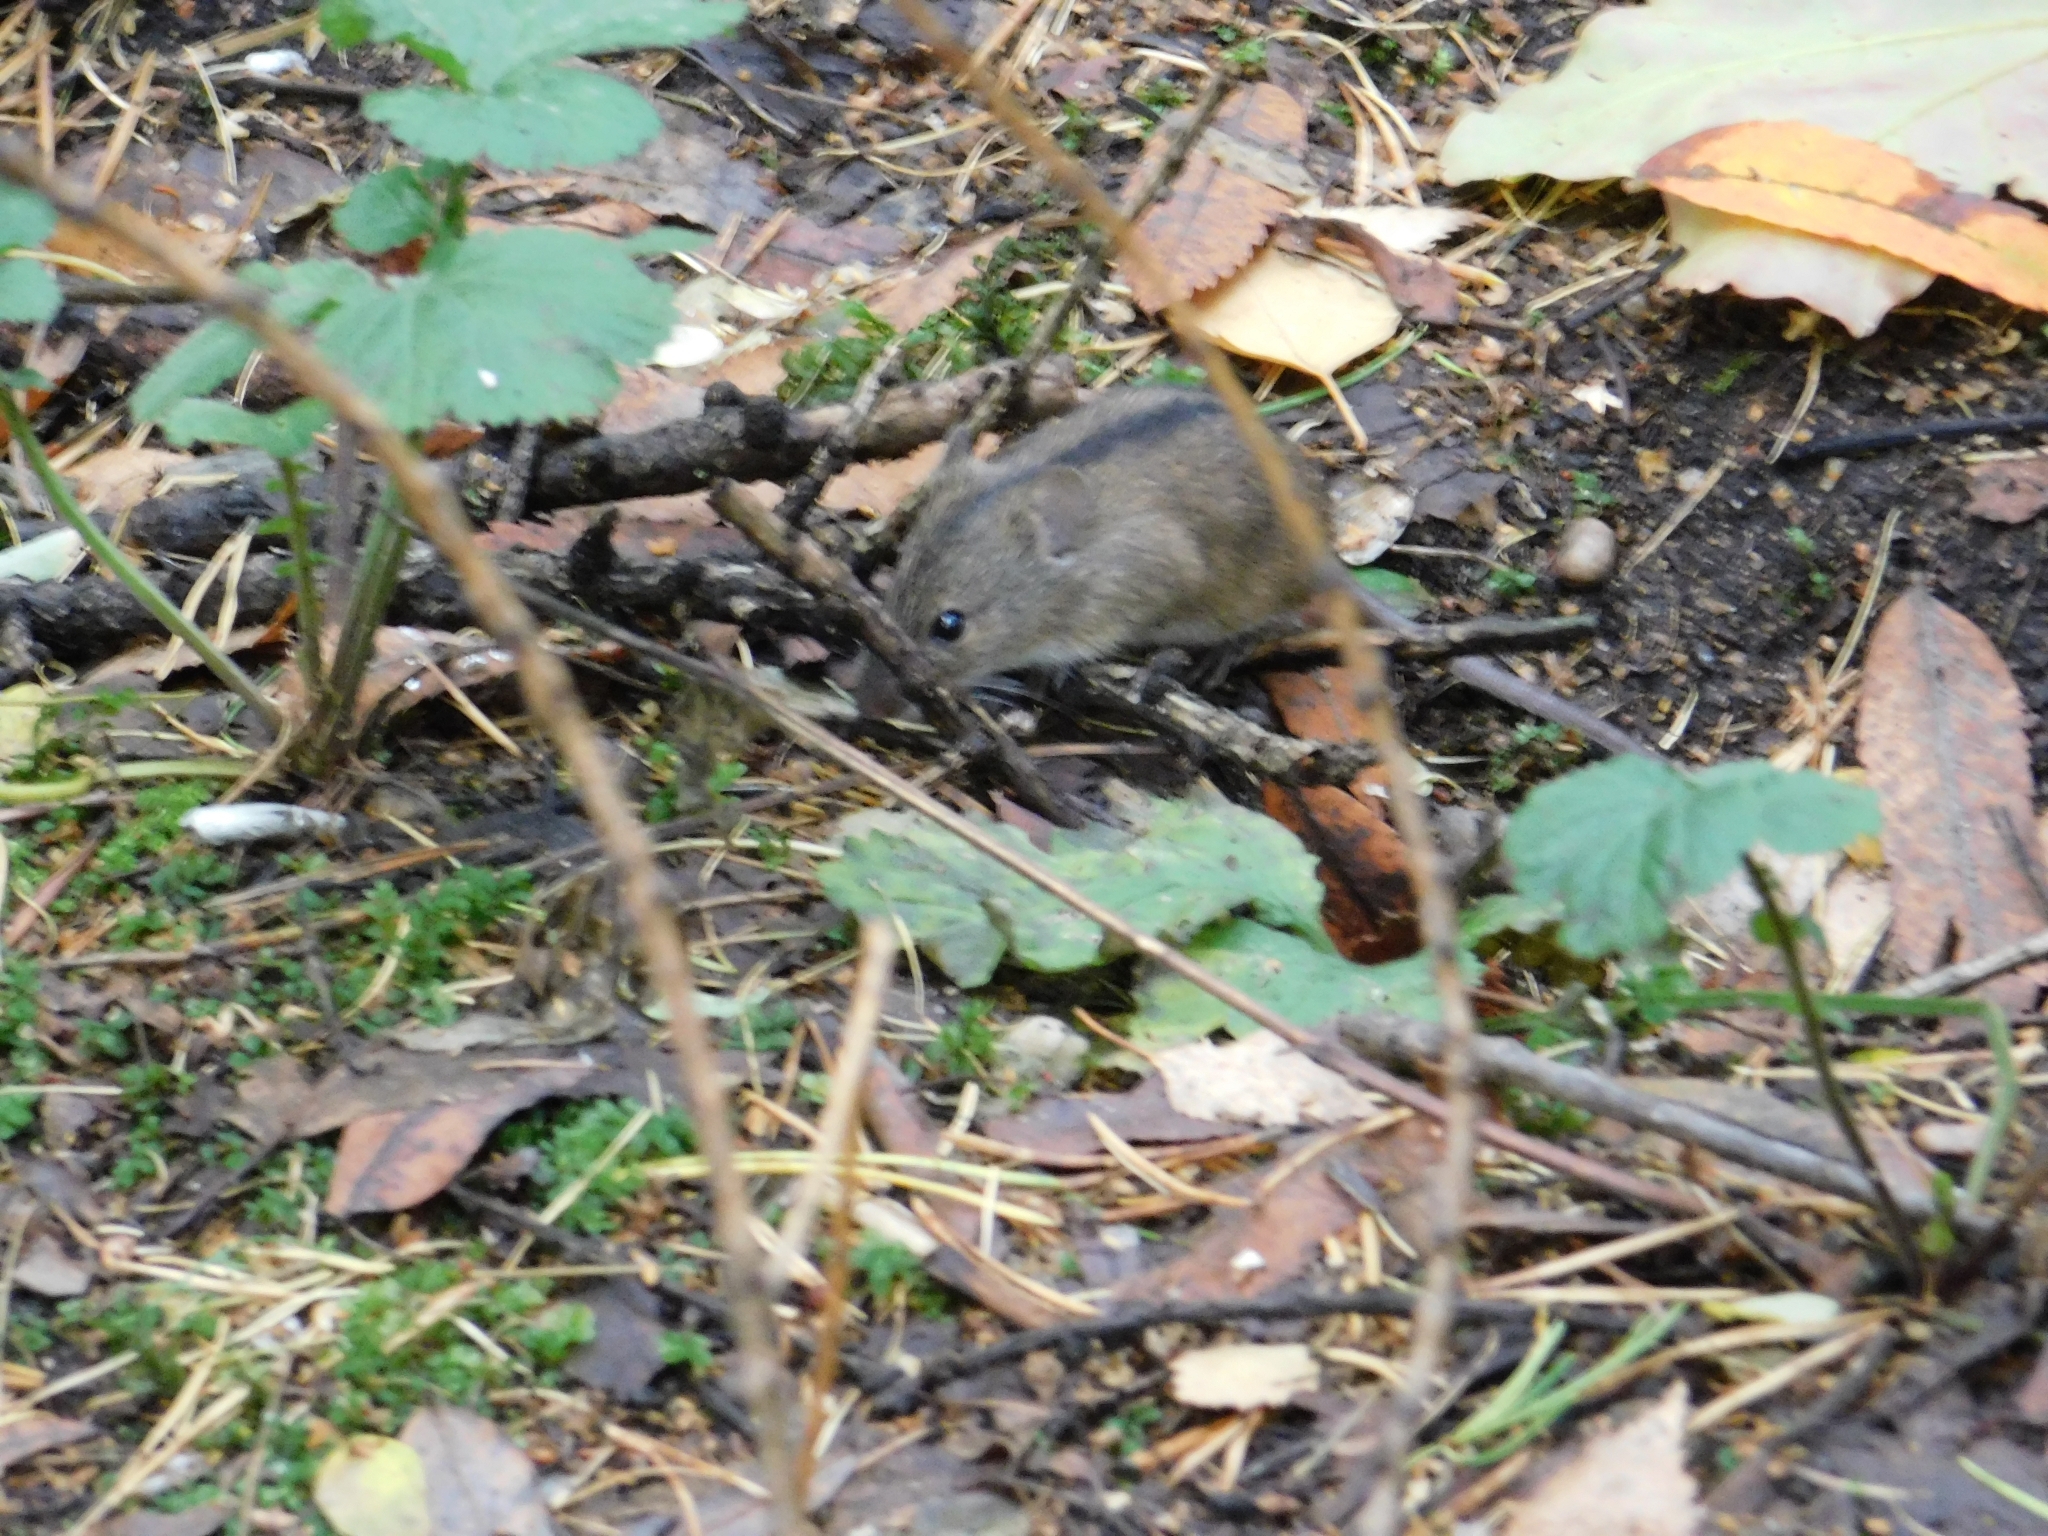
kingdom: Animalia
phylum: Chordata
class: Mammalia
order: Rodentia
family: Muridae
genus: Apodemus
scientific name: Apodemus agrarius
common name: Striped field mouse
